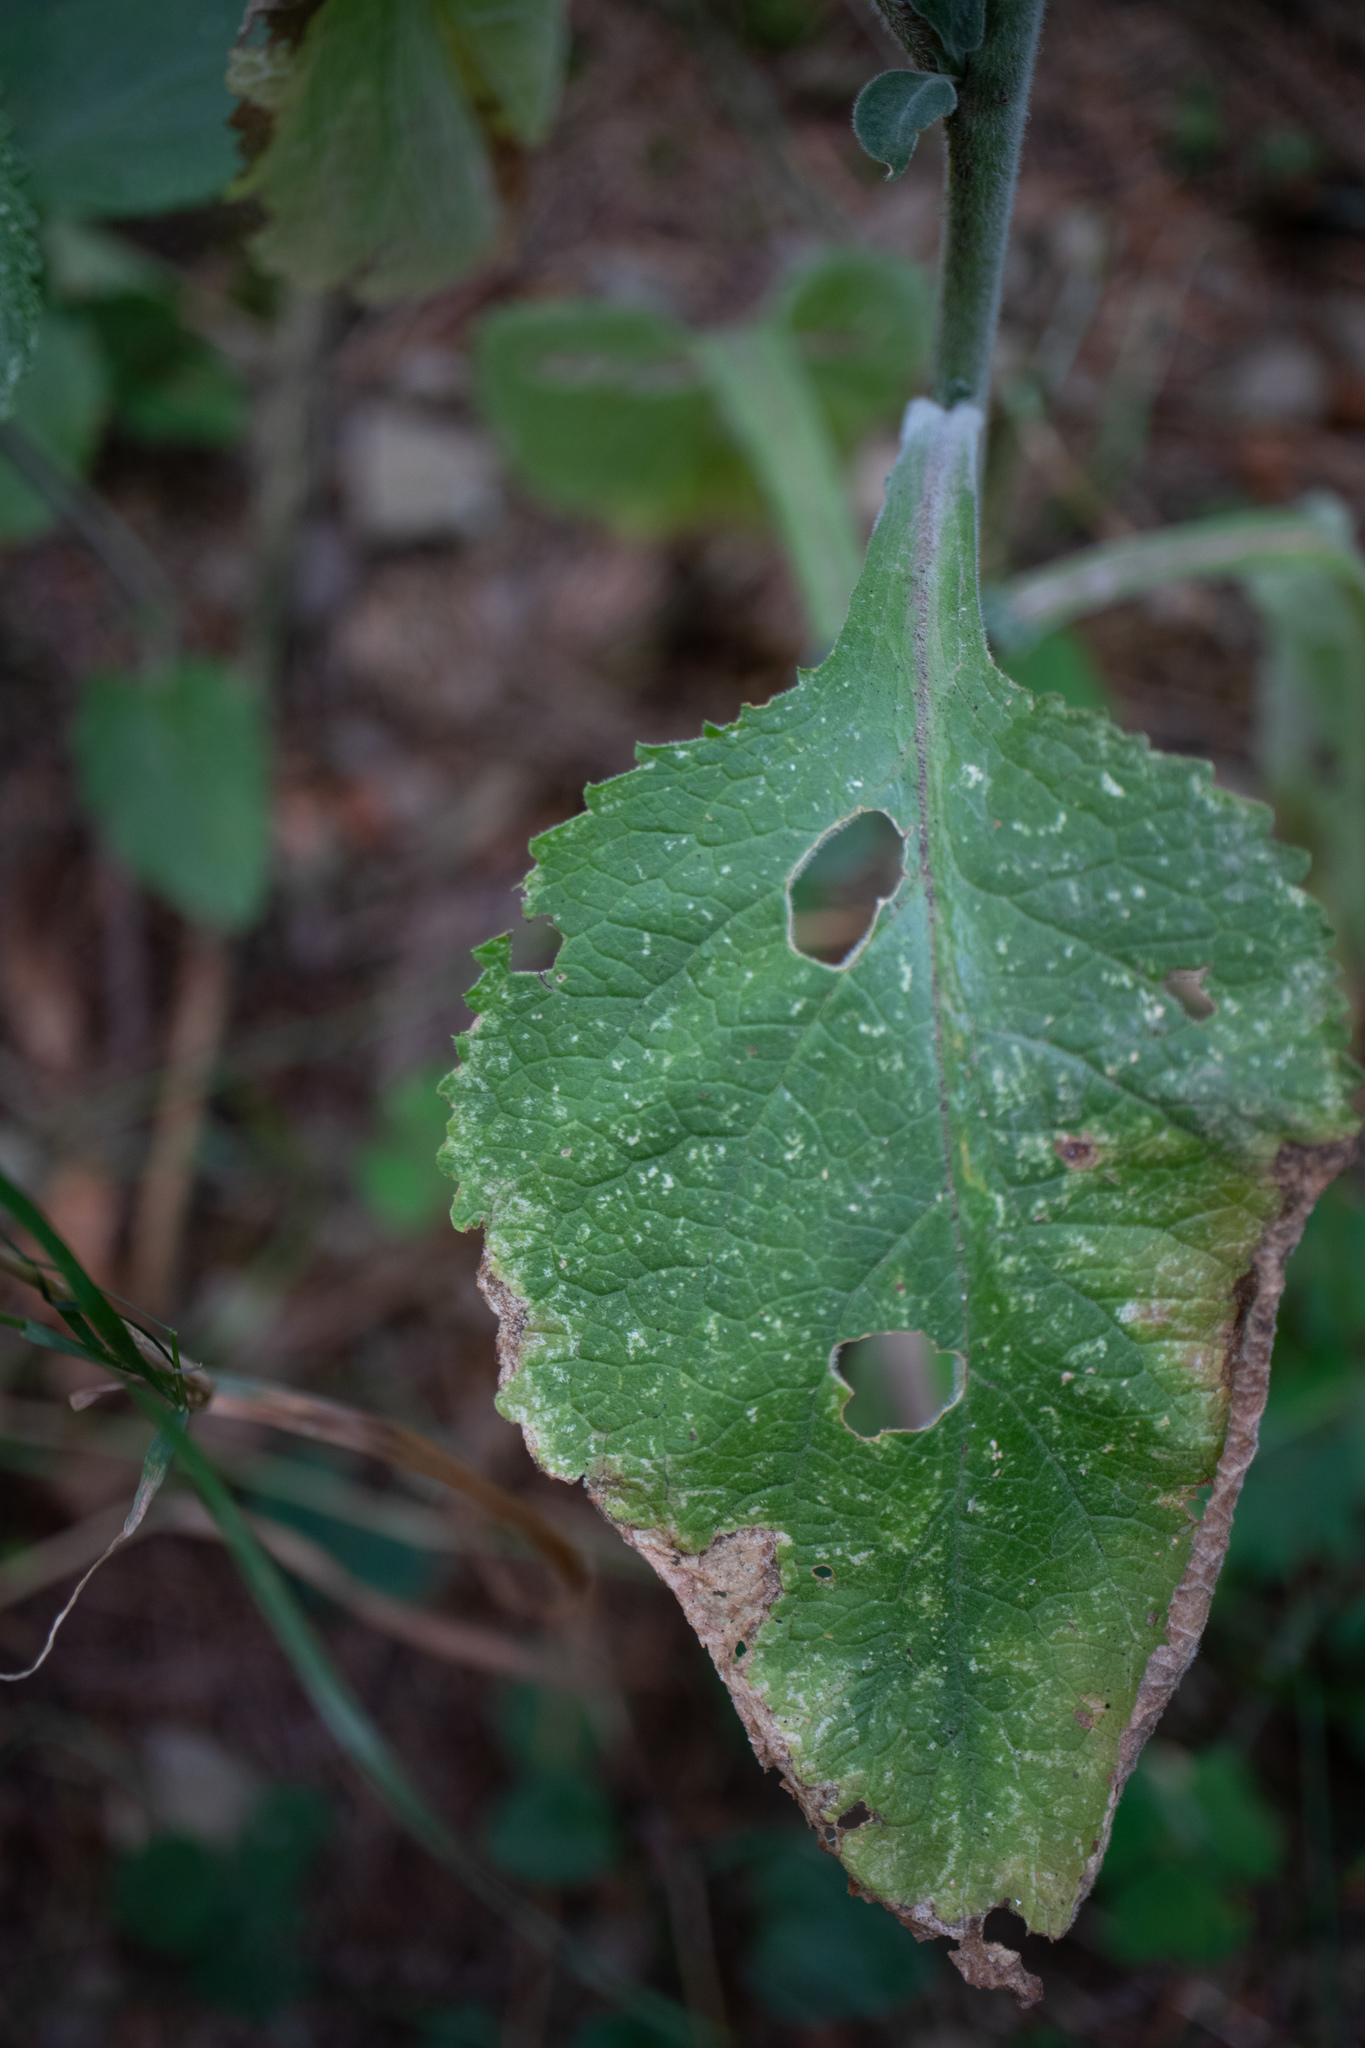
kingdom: Plantae
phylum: Tracheophyta
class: Magnoliopsida
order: Lamiales
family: Plantaginaceae
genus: Digitalis
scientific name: Digitalis purpurea
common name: Foxglove
